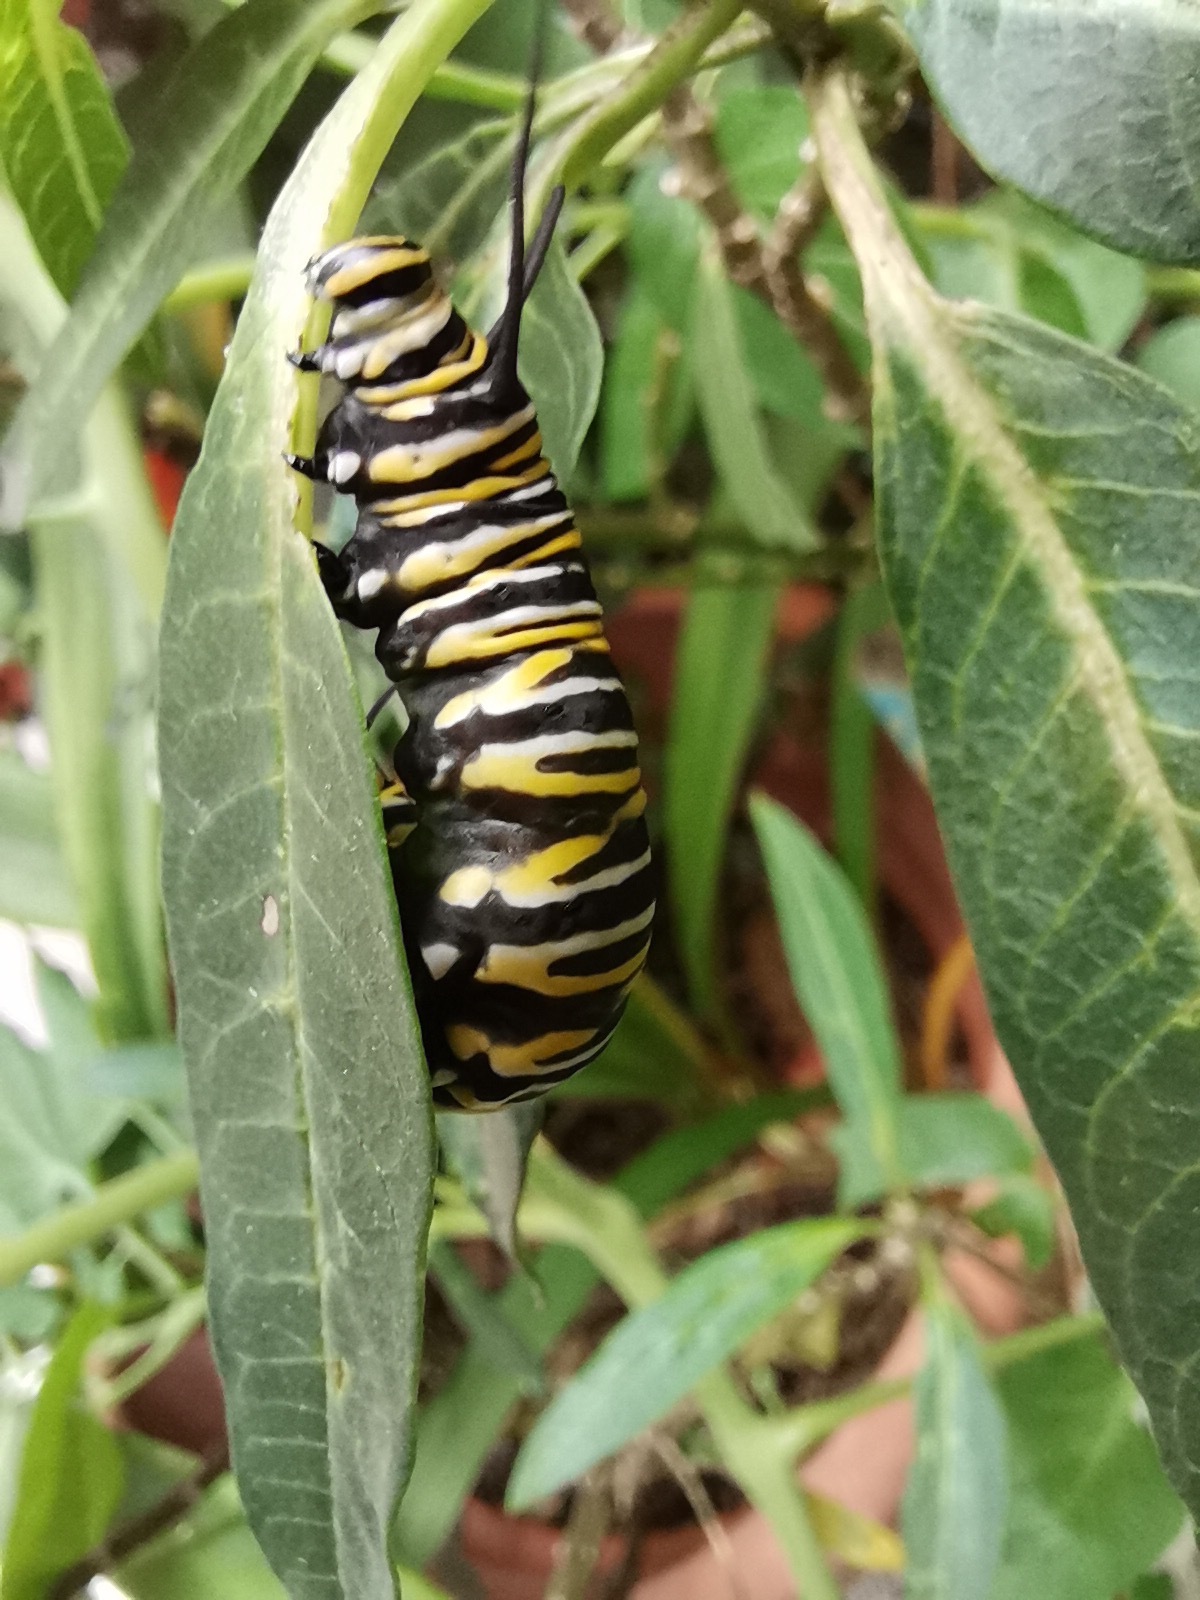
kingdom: Animalia
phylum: Arthropoda
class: Insecta
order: Lepidoptera
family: Nymphalidae
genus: Danaus
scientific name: Danaus plexippus
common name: Monarch
